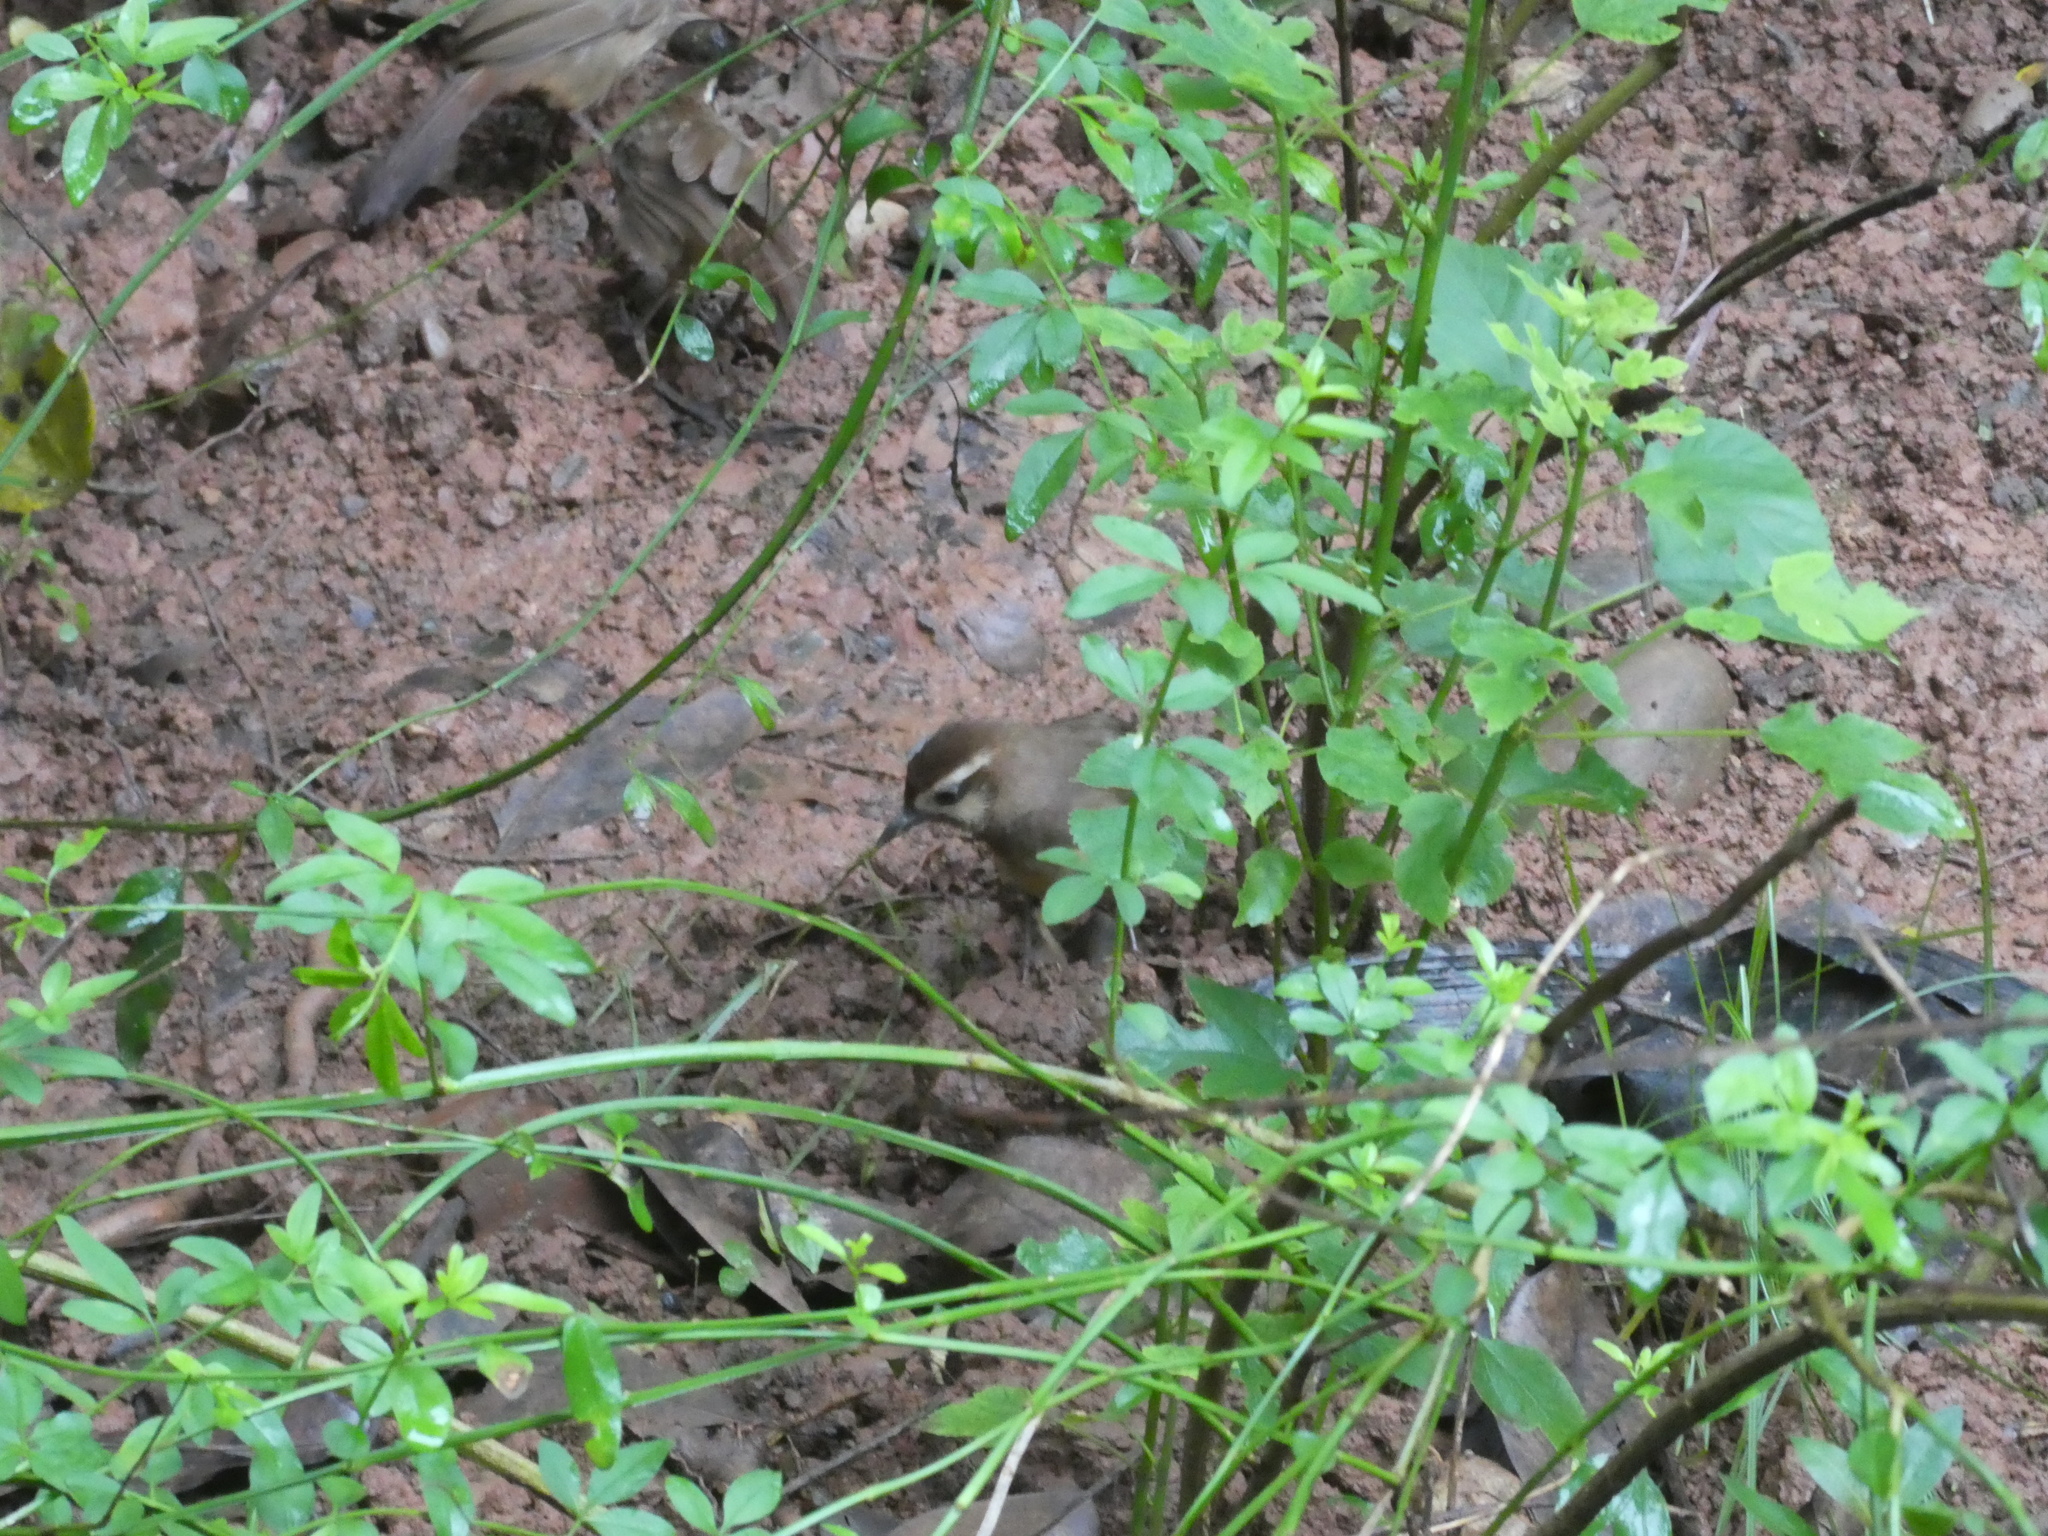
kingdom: Animalia
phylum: Chordata
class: Aves
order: Passeriformes
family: Leiothrichidae
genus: Pterorhinus
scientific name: Pterorhinus sannio
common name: White-browed laughingthrush
